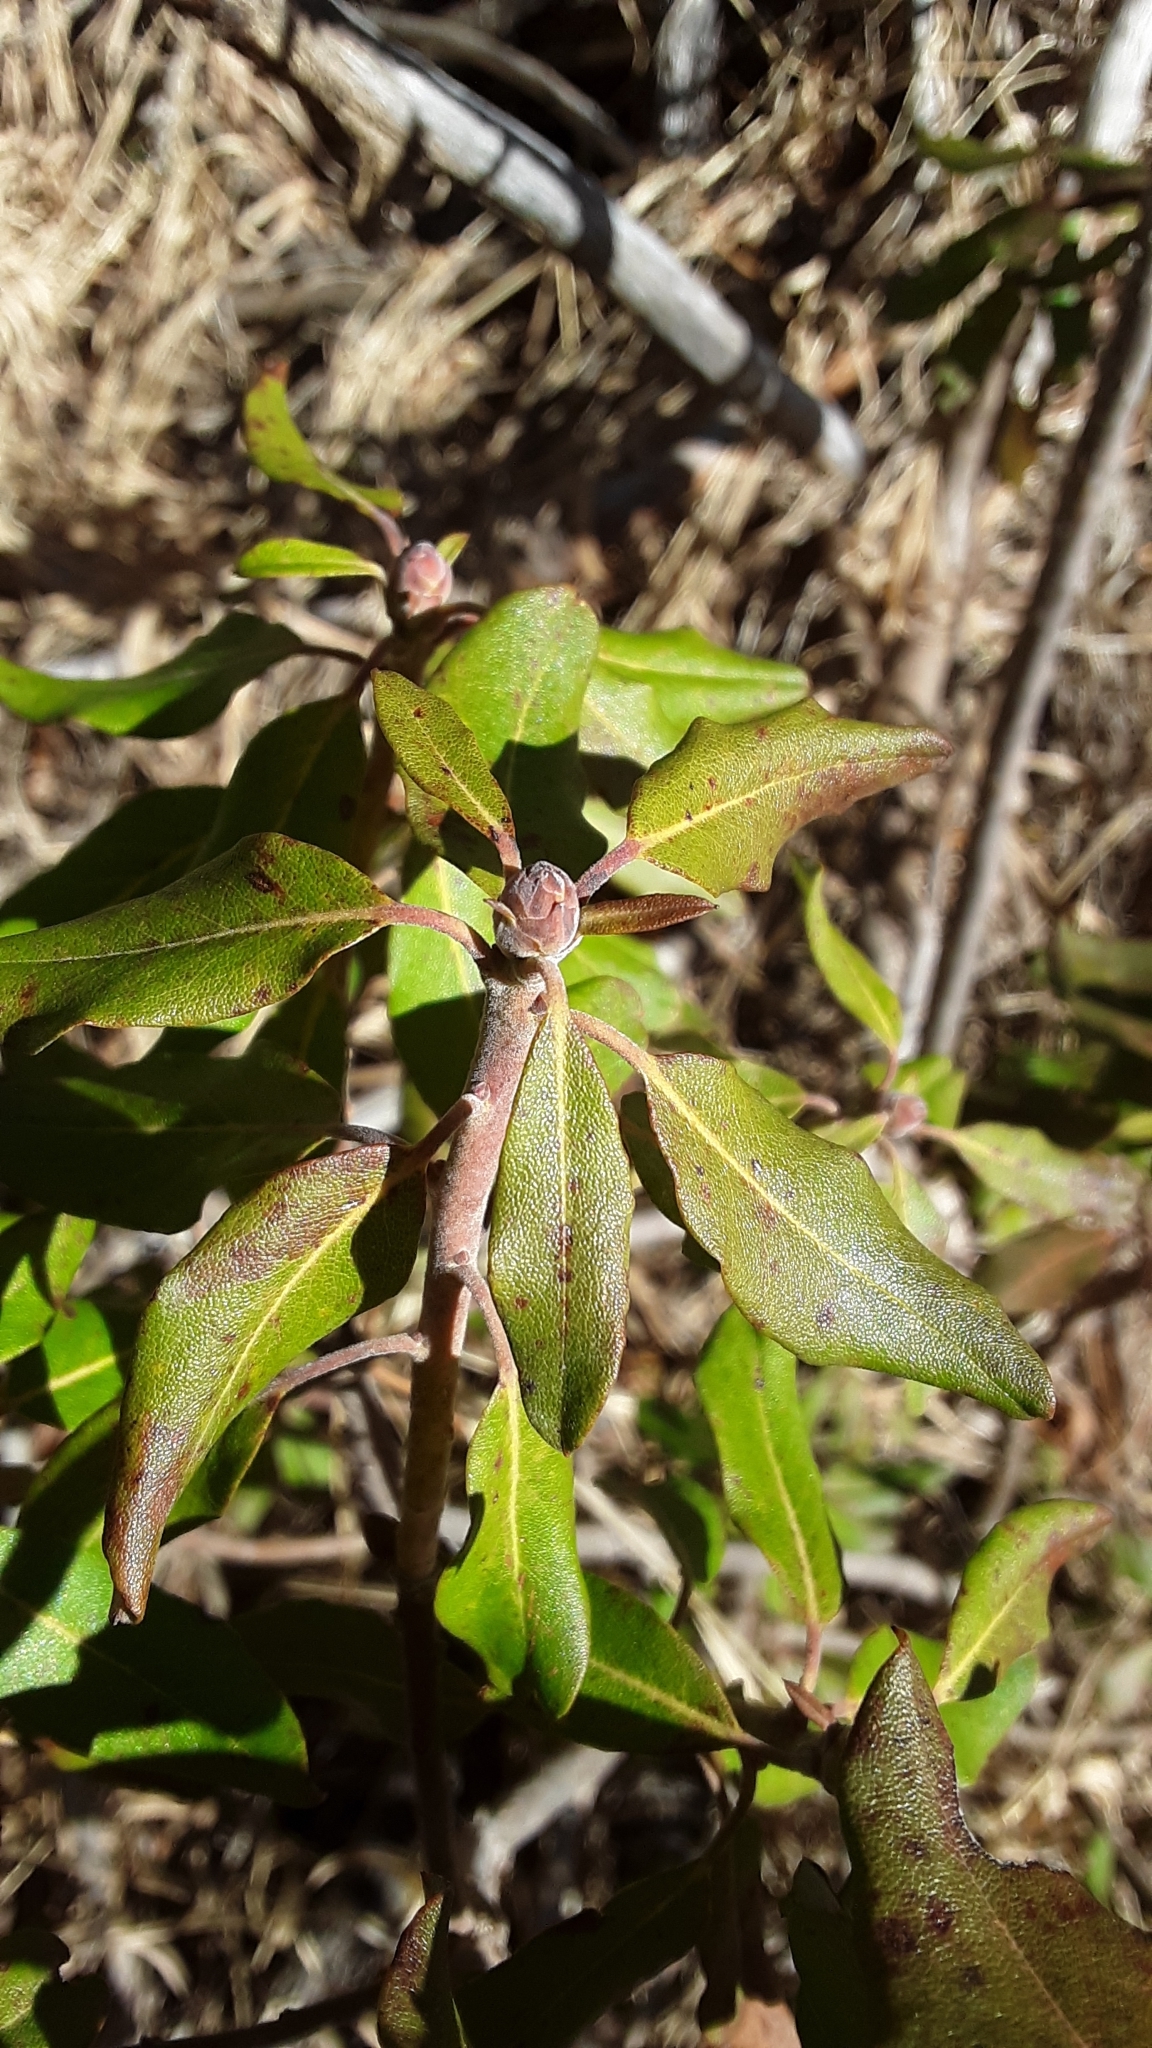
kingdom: Plantae
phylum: Tracheophyta
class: Magnoliopsida
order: Ericales
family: Ericaceae
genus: Rhododendron
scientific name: Rhododendron columbianum
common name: Western labrador tea
